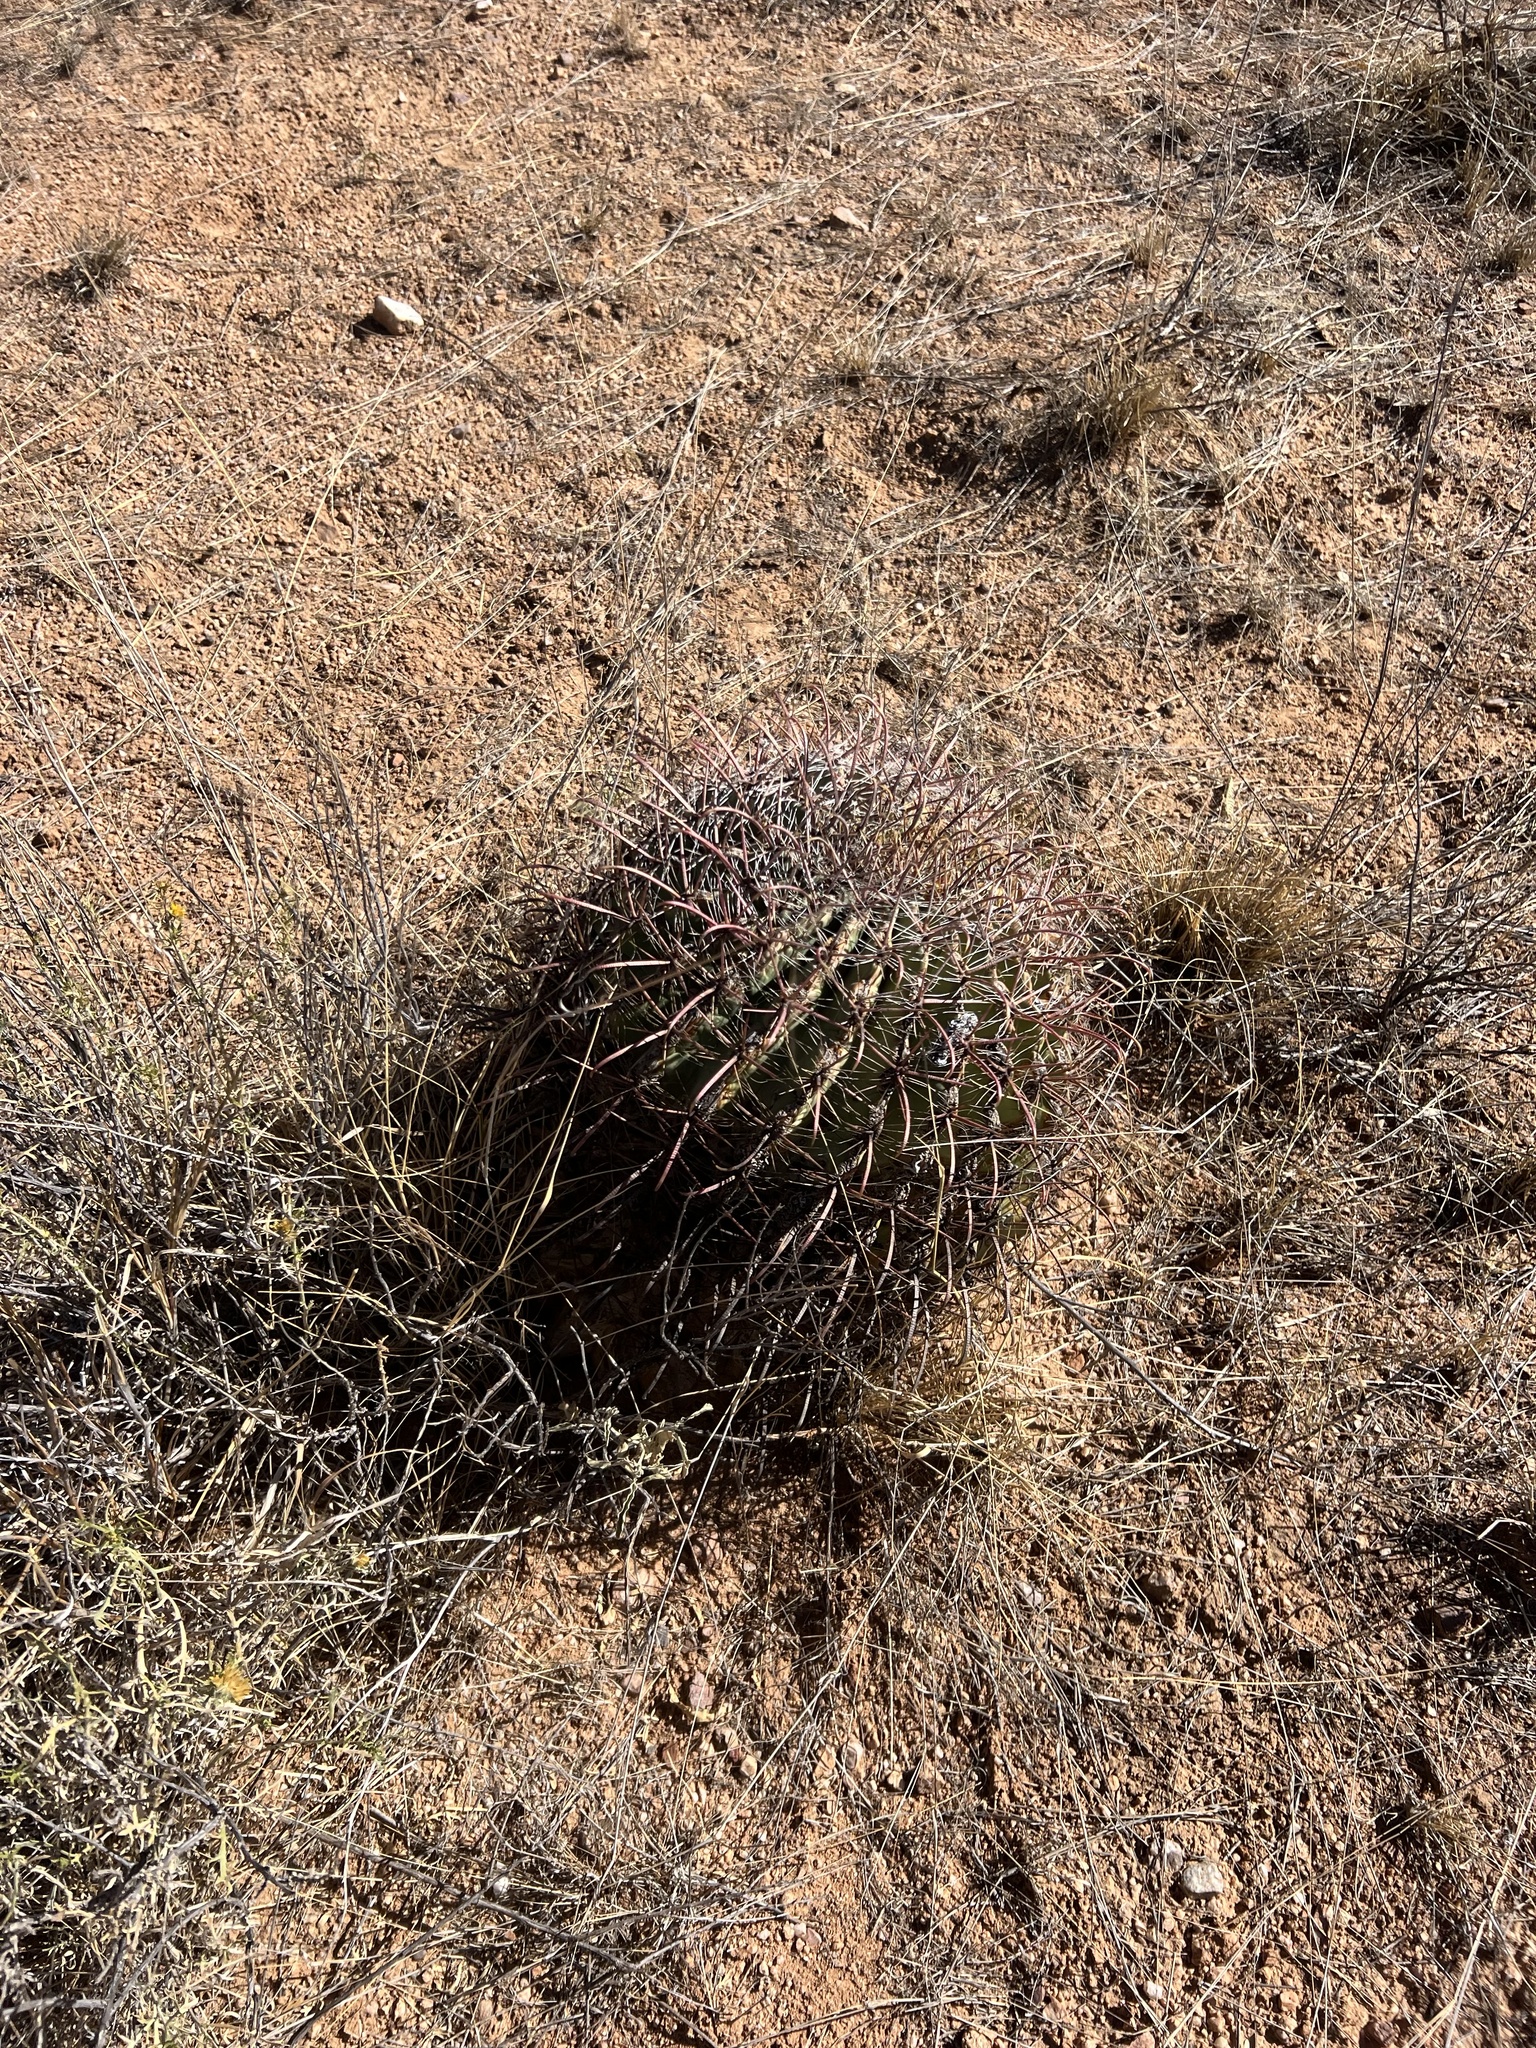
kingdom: Plantae
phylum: Tracheophyta
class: Magnoliopsida
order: Caryophyllales
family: Cactaceae
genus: Ferocactus
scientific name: Ferocactus wislizeni
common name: Candy barrel cactus
